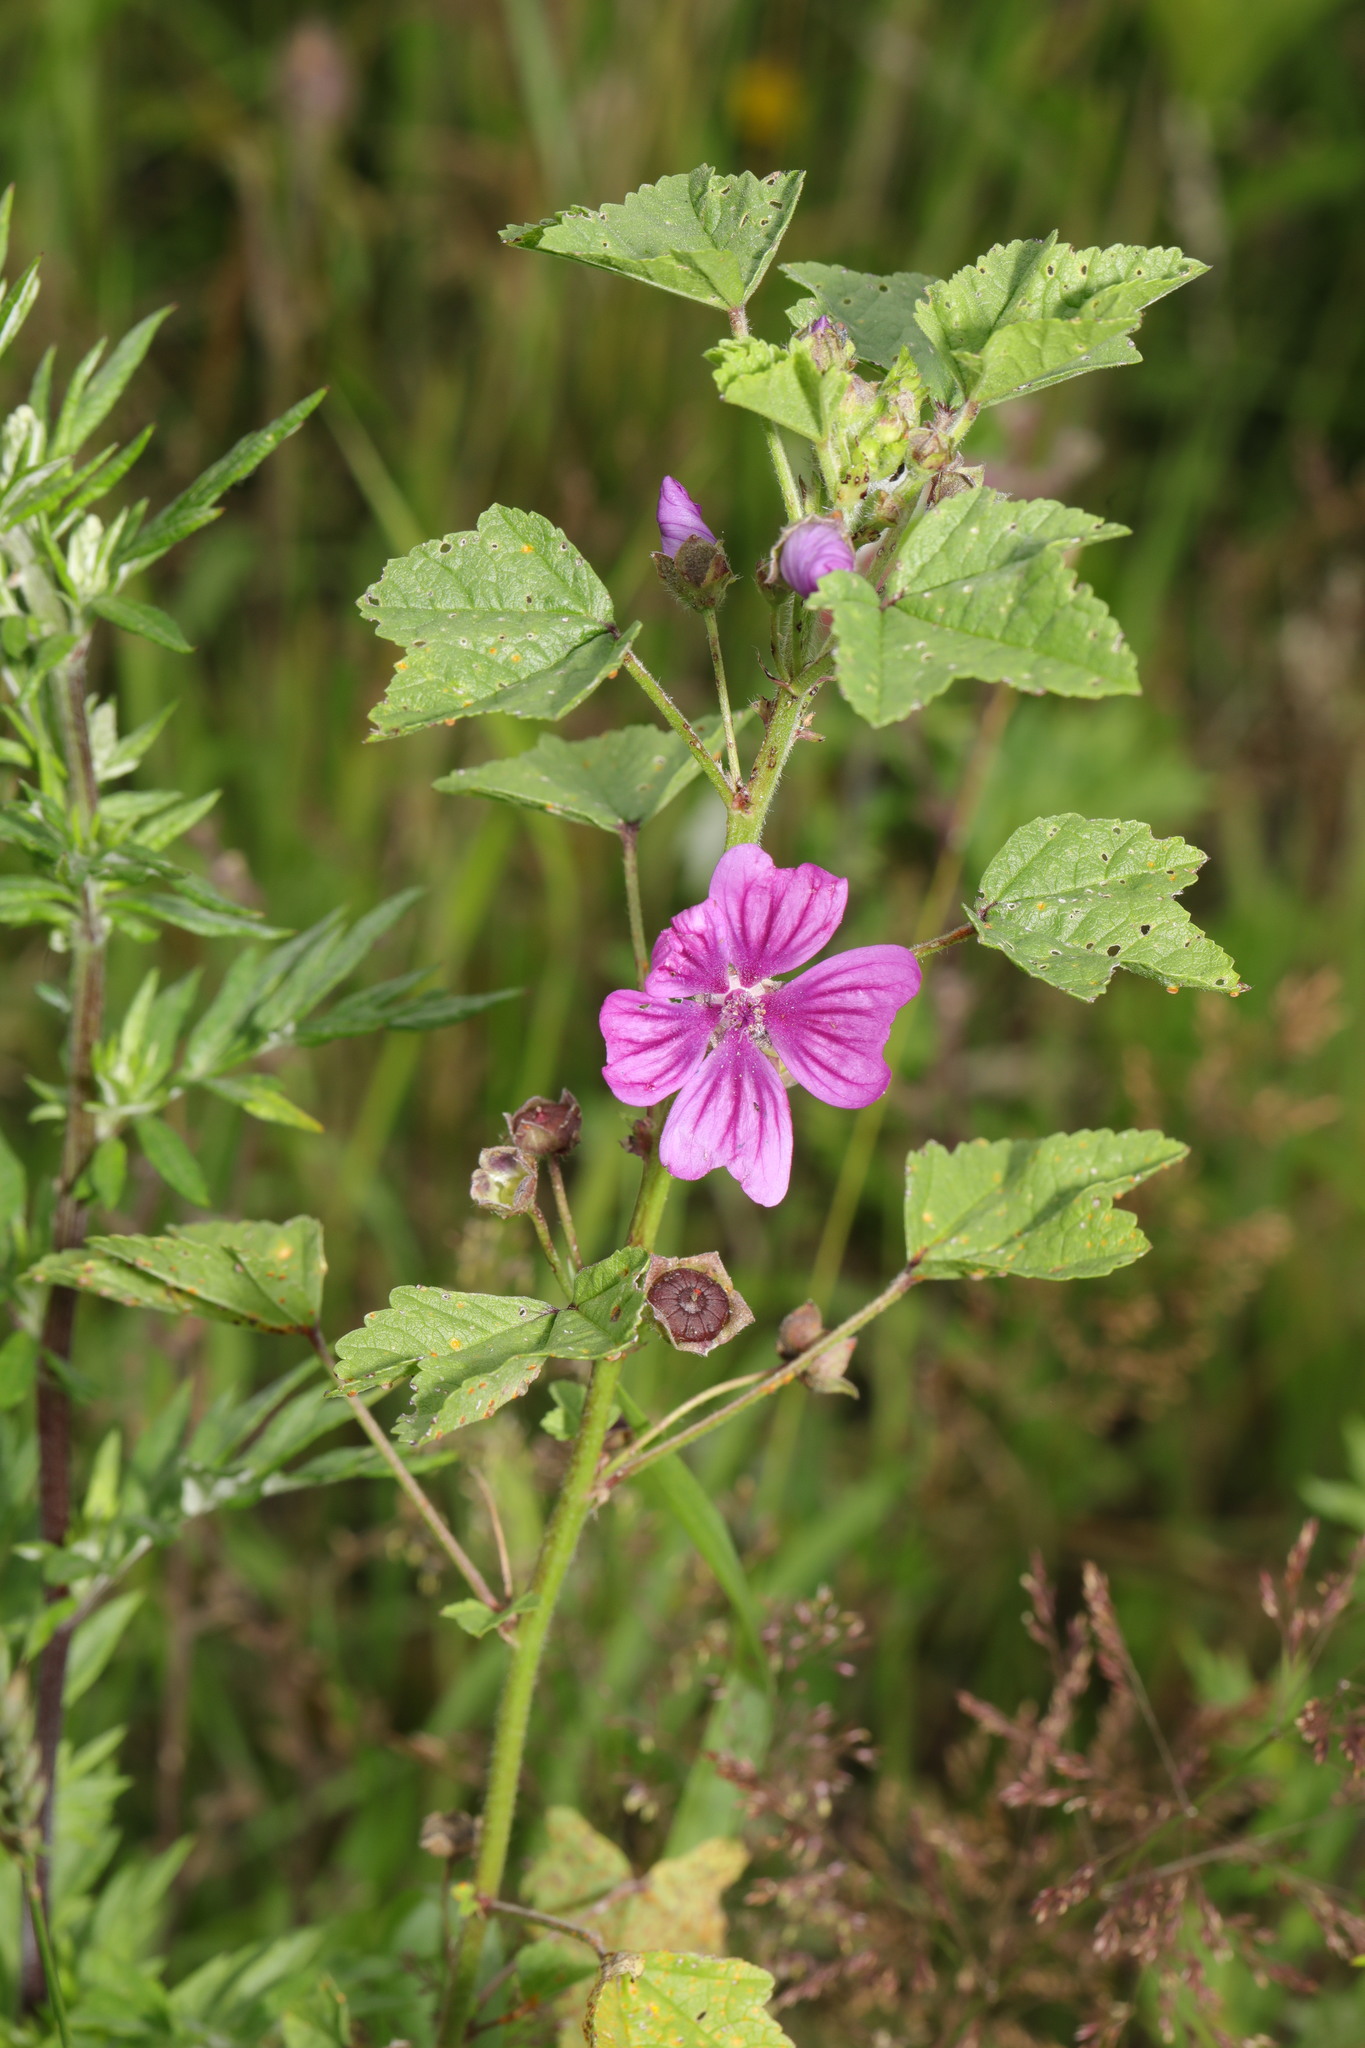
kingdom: Plantae
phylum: Tracheophyta
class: Magnoliopsida
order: Malvales
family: Malvaceae
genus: Malva
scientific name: Malva sylvestris
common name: Common mallow
